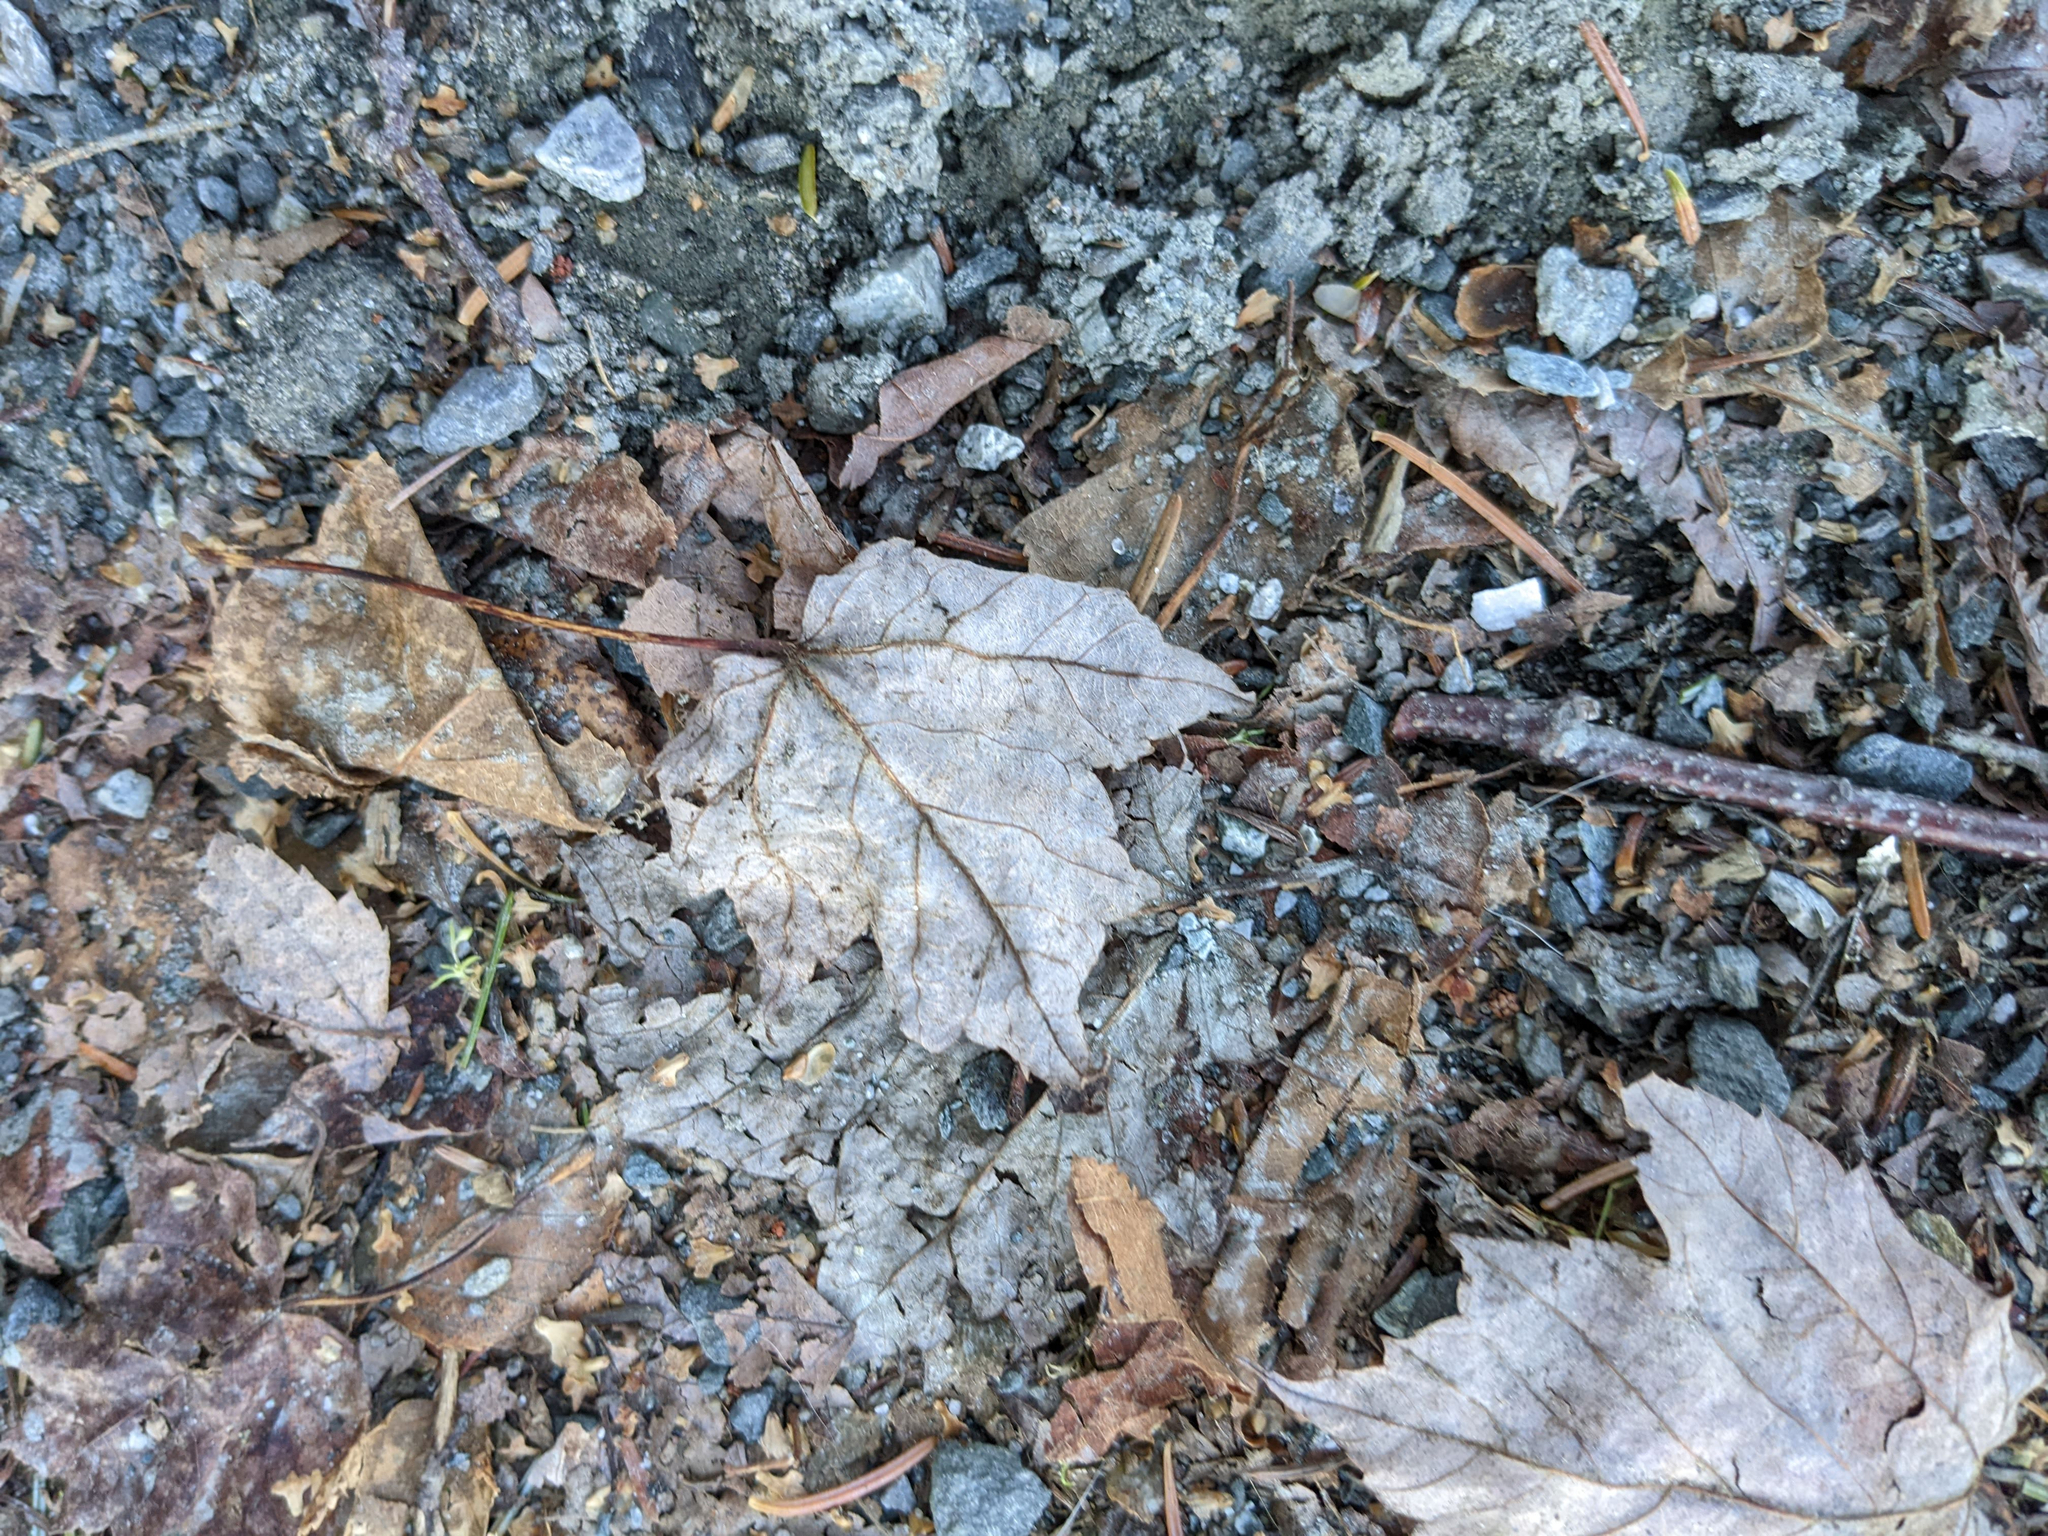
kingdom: Plantae
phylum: Tracheophyta
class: Magnoliopsida
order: Sapindales
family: Sapindaceae
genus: Acer
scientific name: Acer rubrum
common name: Red maple
